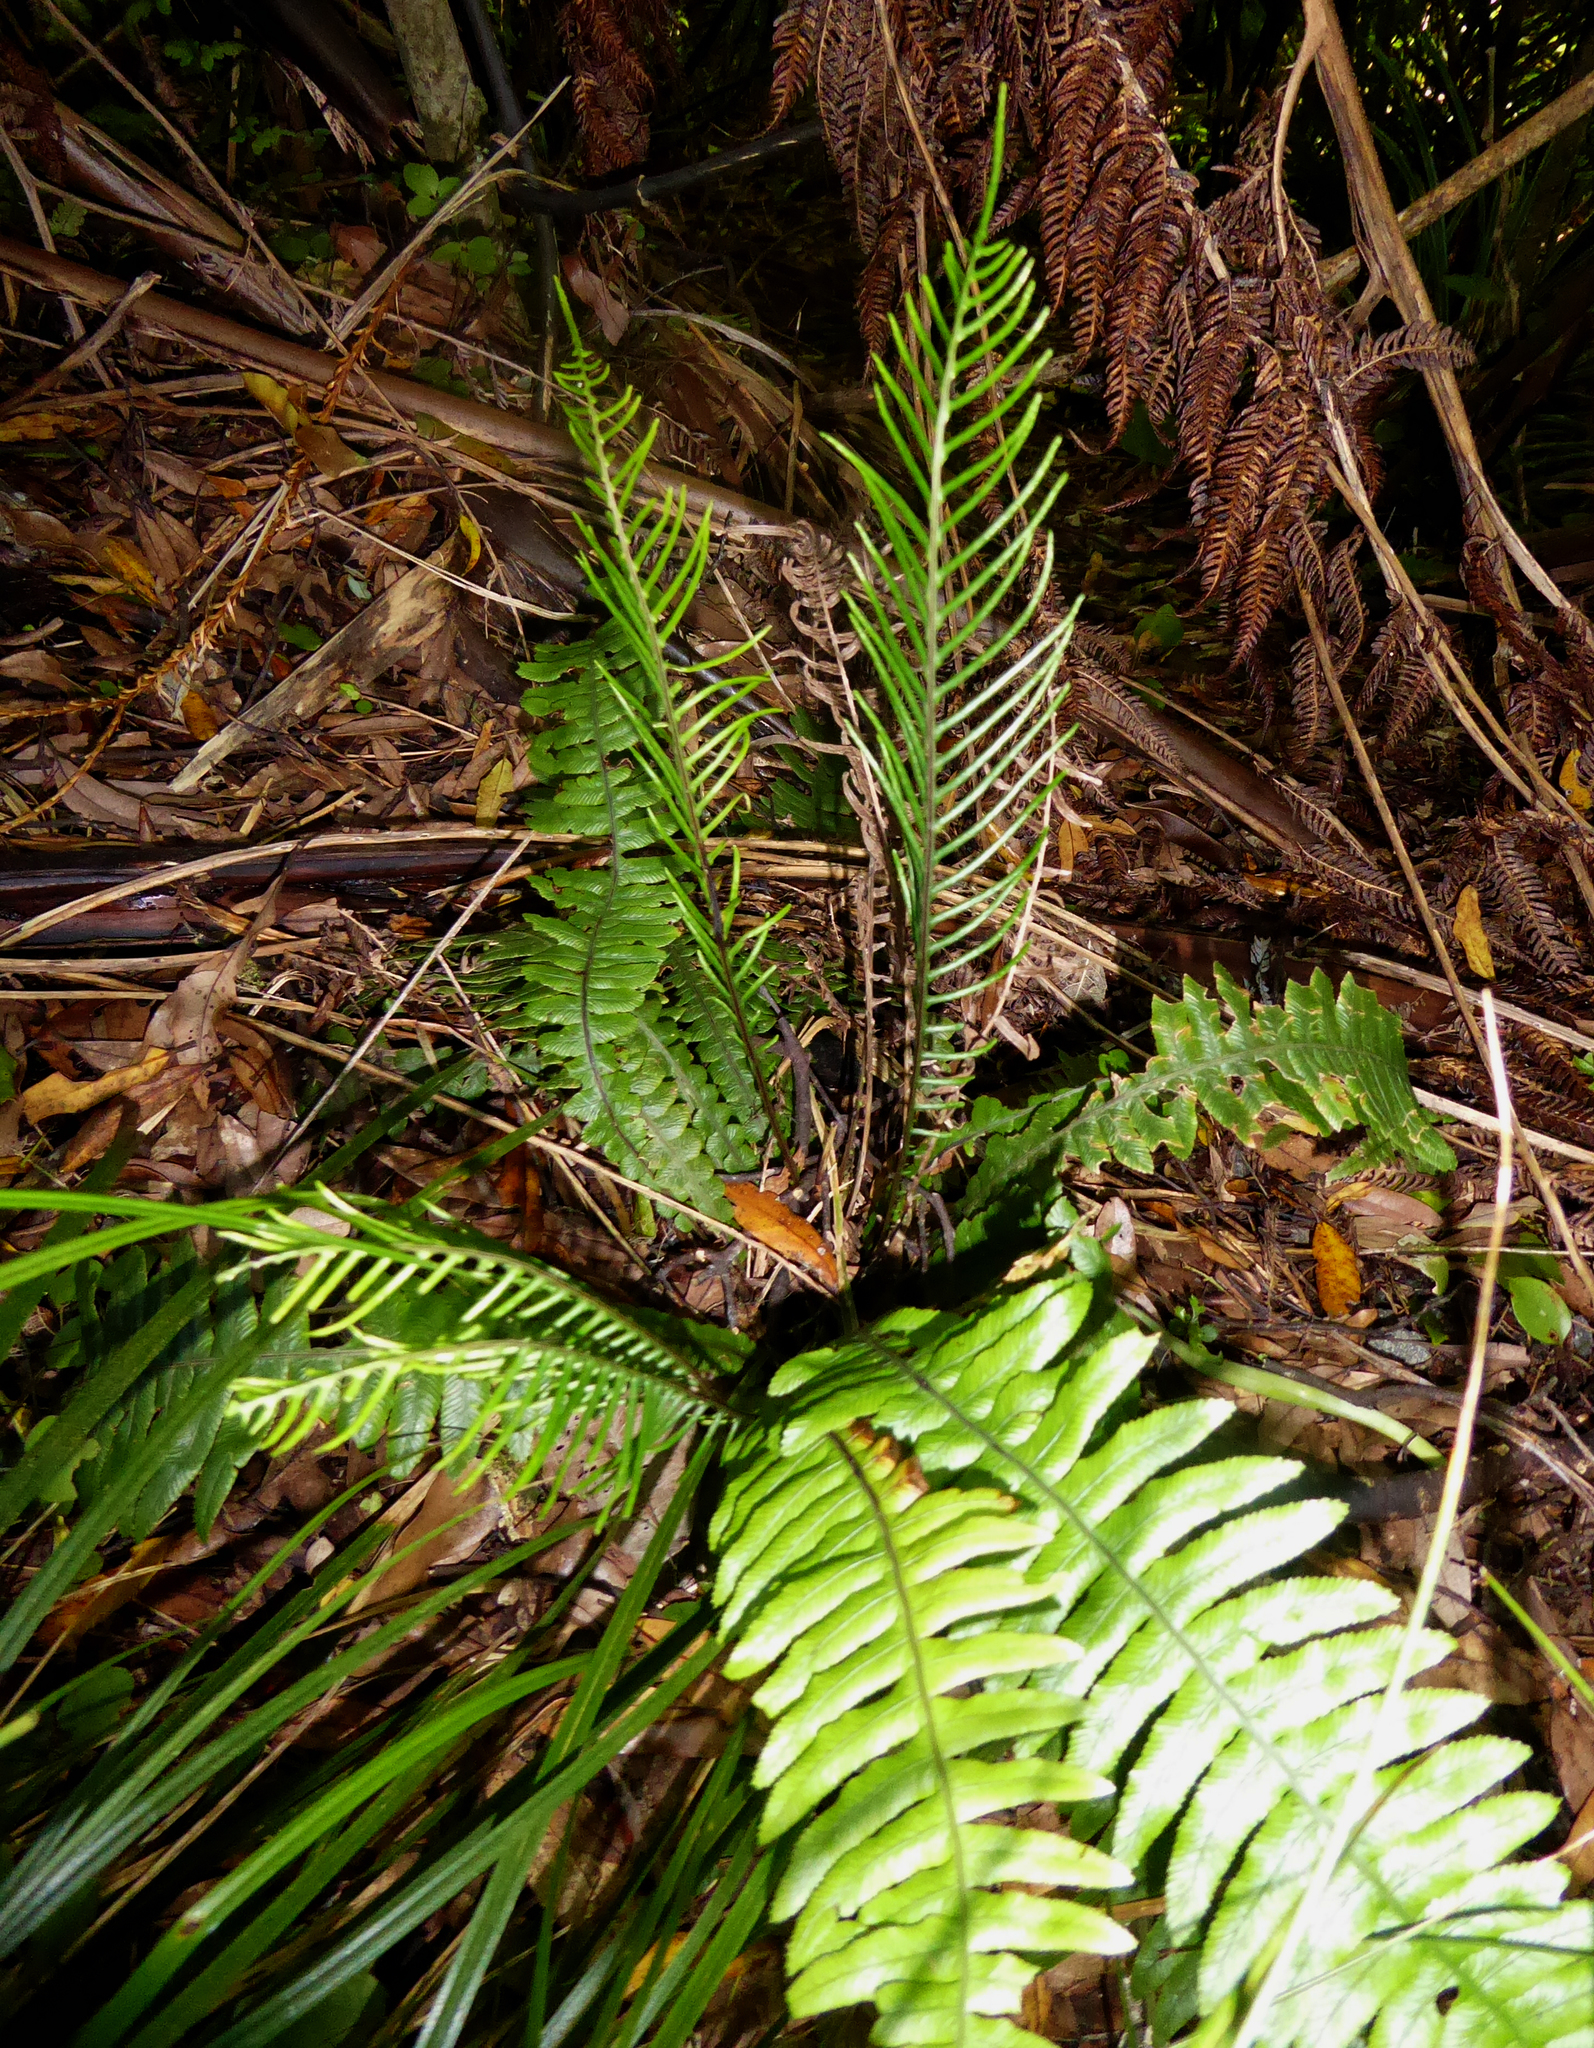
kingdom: Plantae
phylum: Tracheophyta
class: Polypodiopsida
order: Polypodiales
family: Blechnaceae
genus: Austroblechnum
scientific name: Austroblechnum lanceolatum
